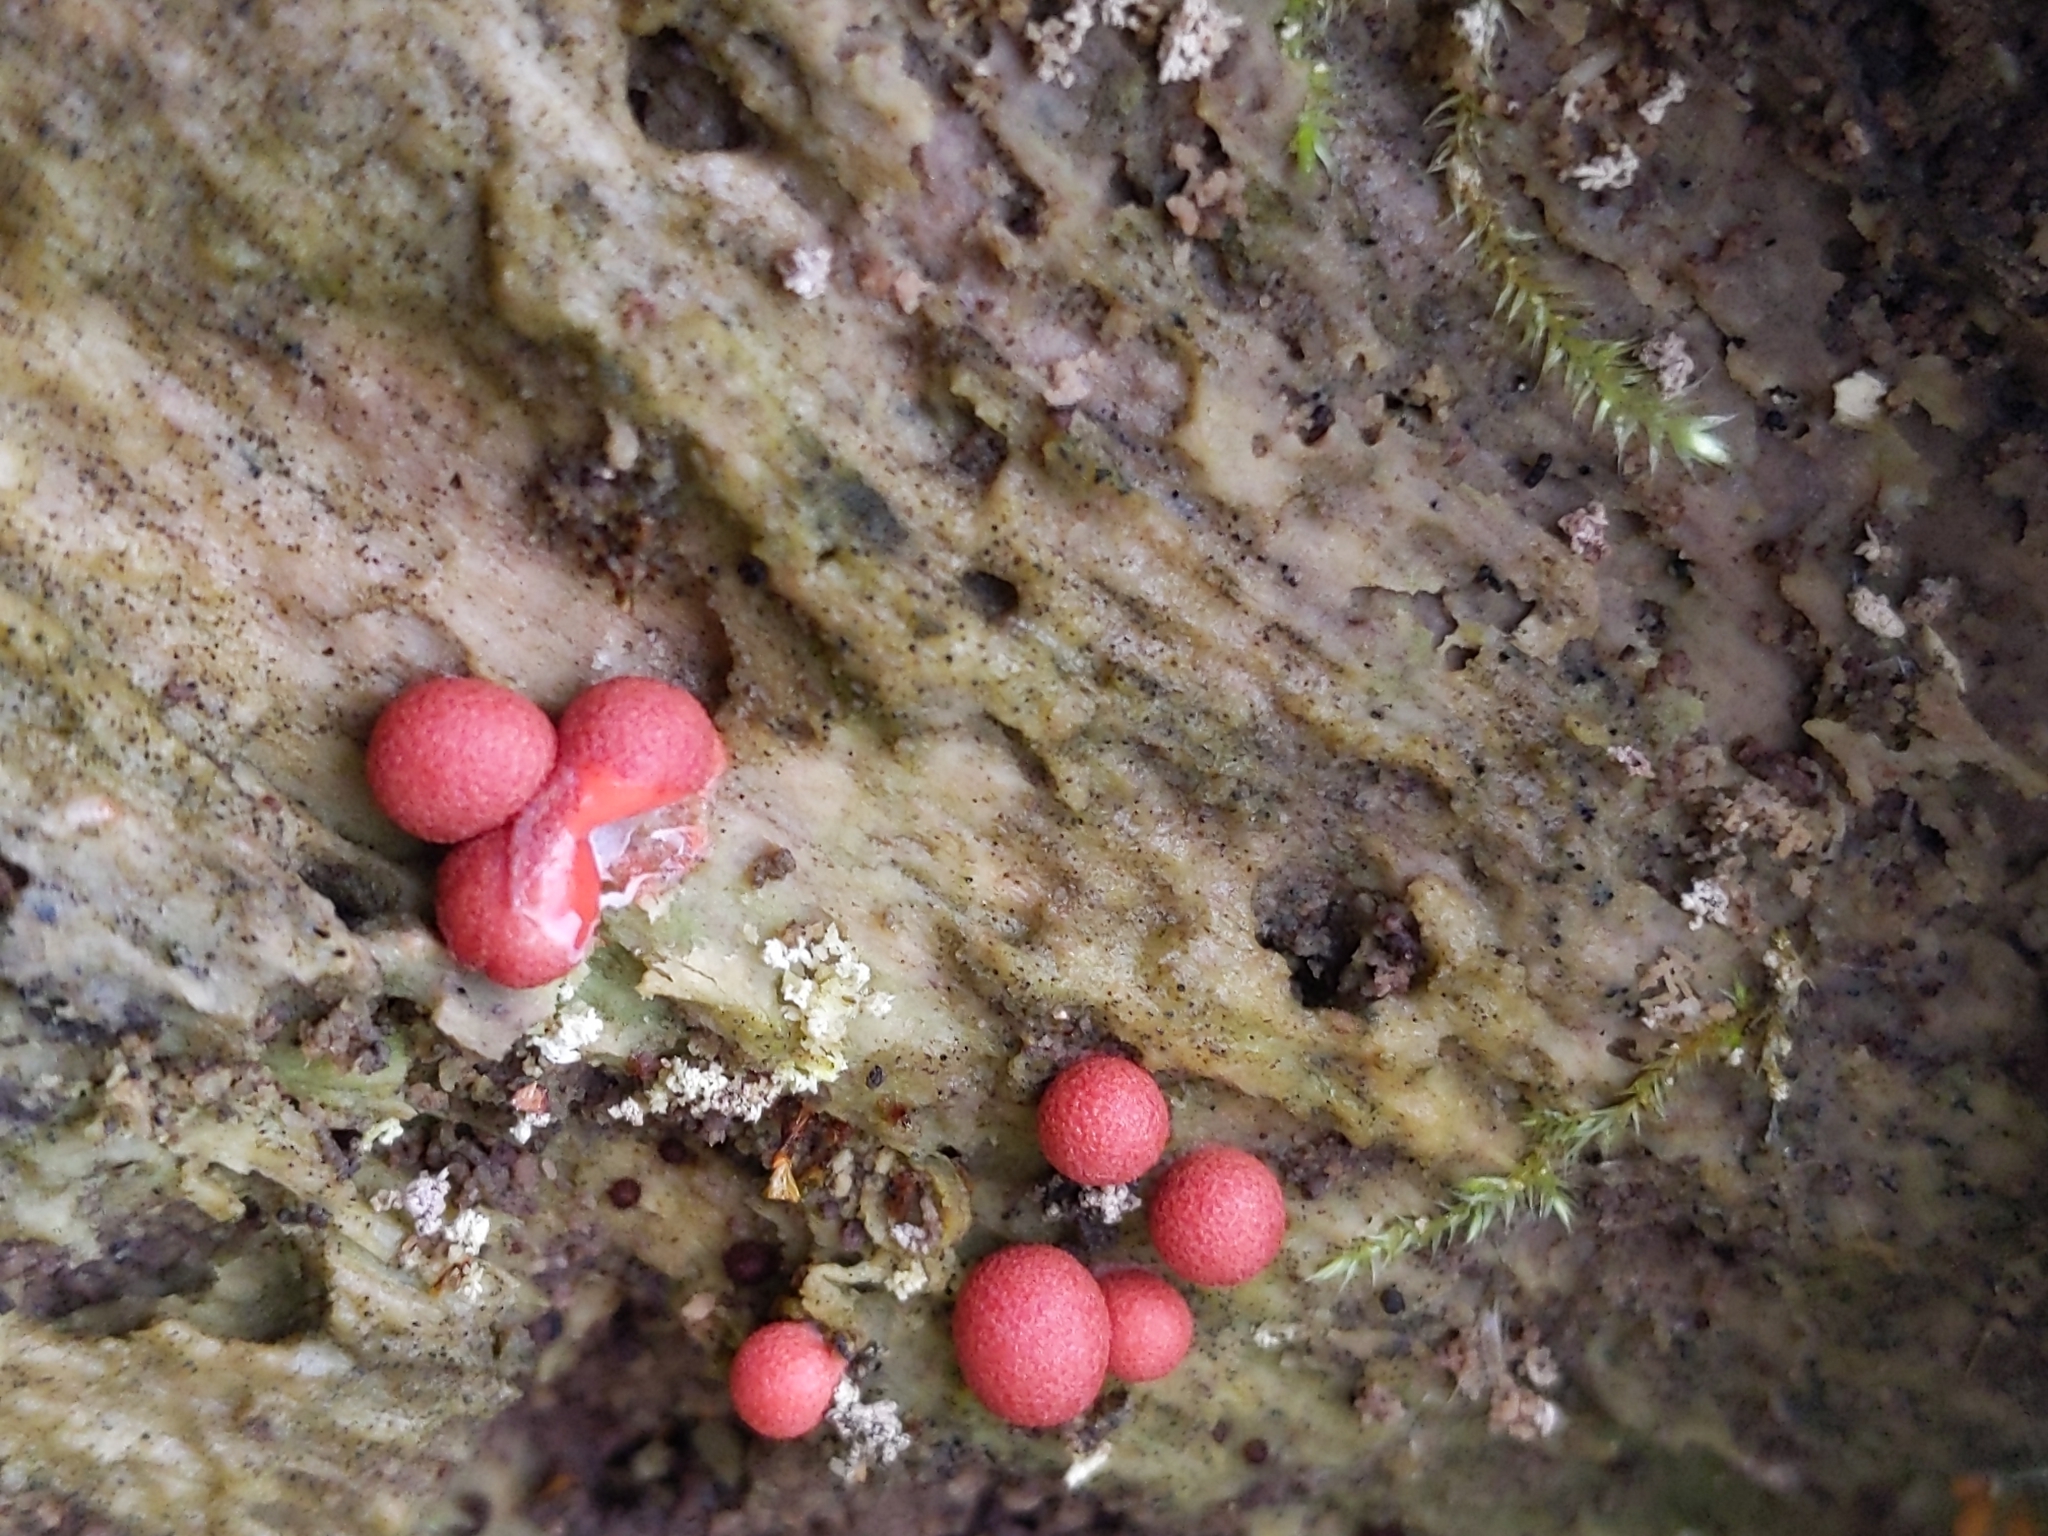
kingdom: Protozoa
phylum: Mycetozoa
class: Myxomycetes
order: Cribrariales
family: Tubiferaceae
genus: Lycogala
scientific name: Lycogala epidendrum
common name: Wolf's milk
